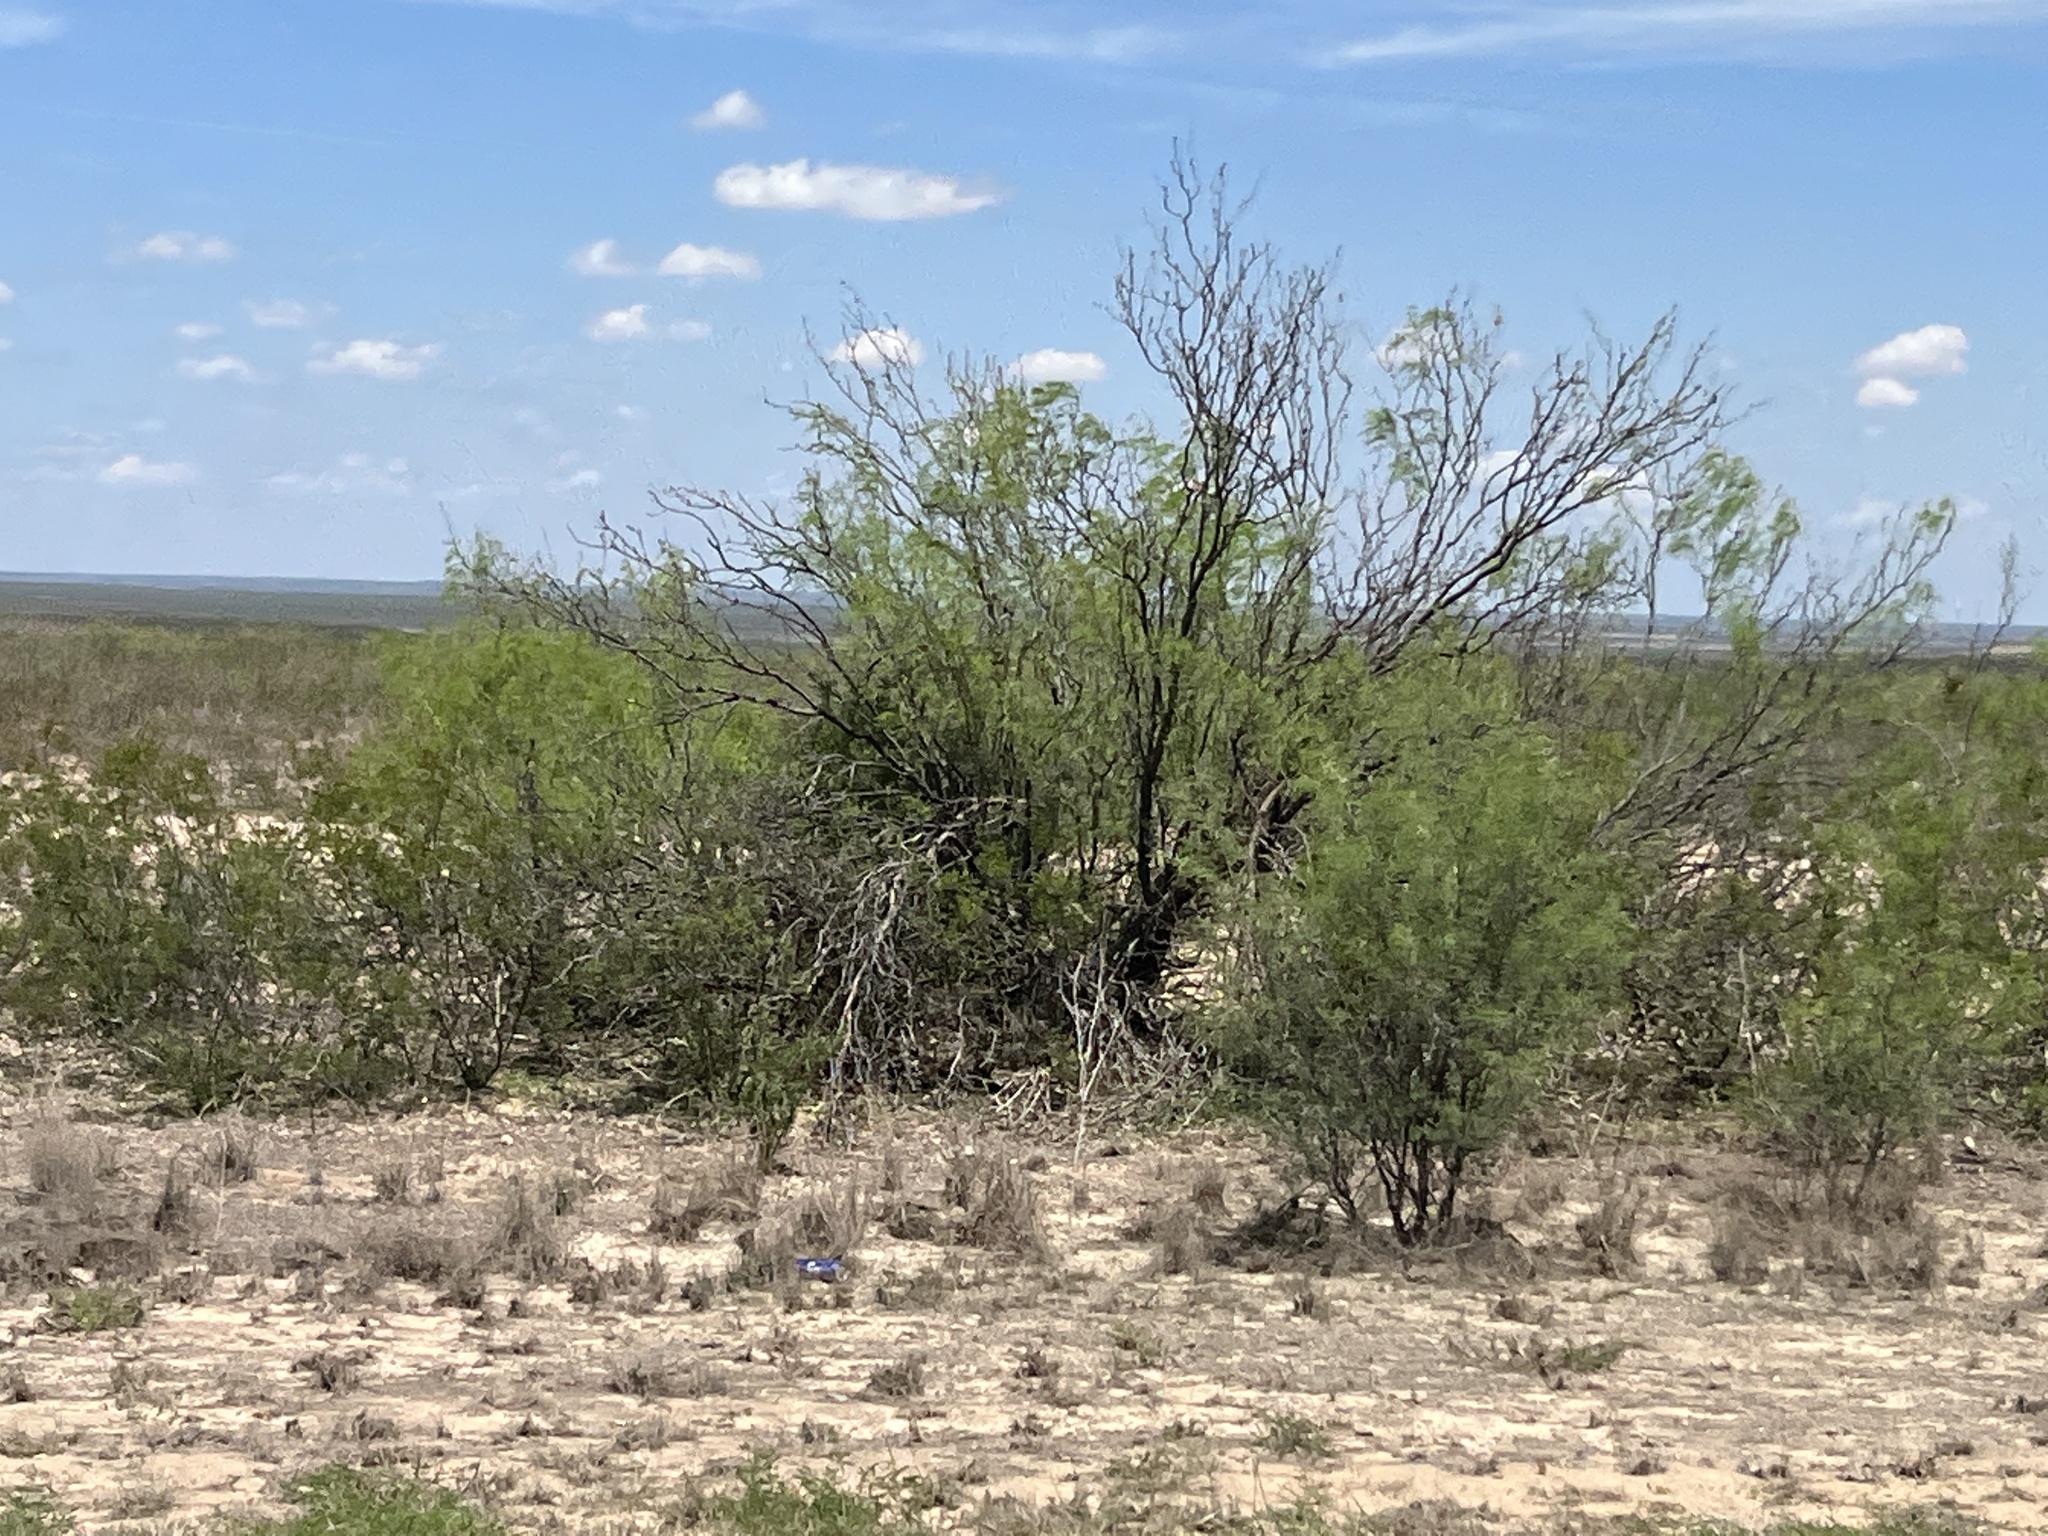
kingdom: Plantae
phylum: Tracheophyta
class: Magnoliopsida
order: Fabales
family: Fabaceae
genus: Prosopis
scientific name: Prosopis glandulosa
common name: Honey mesquite
